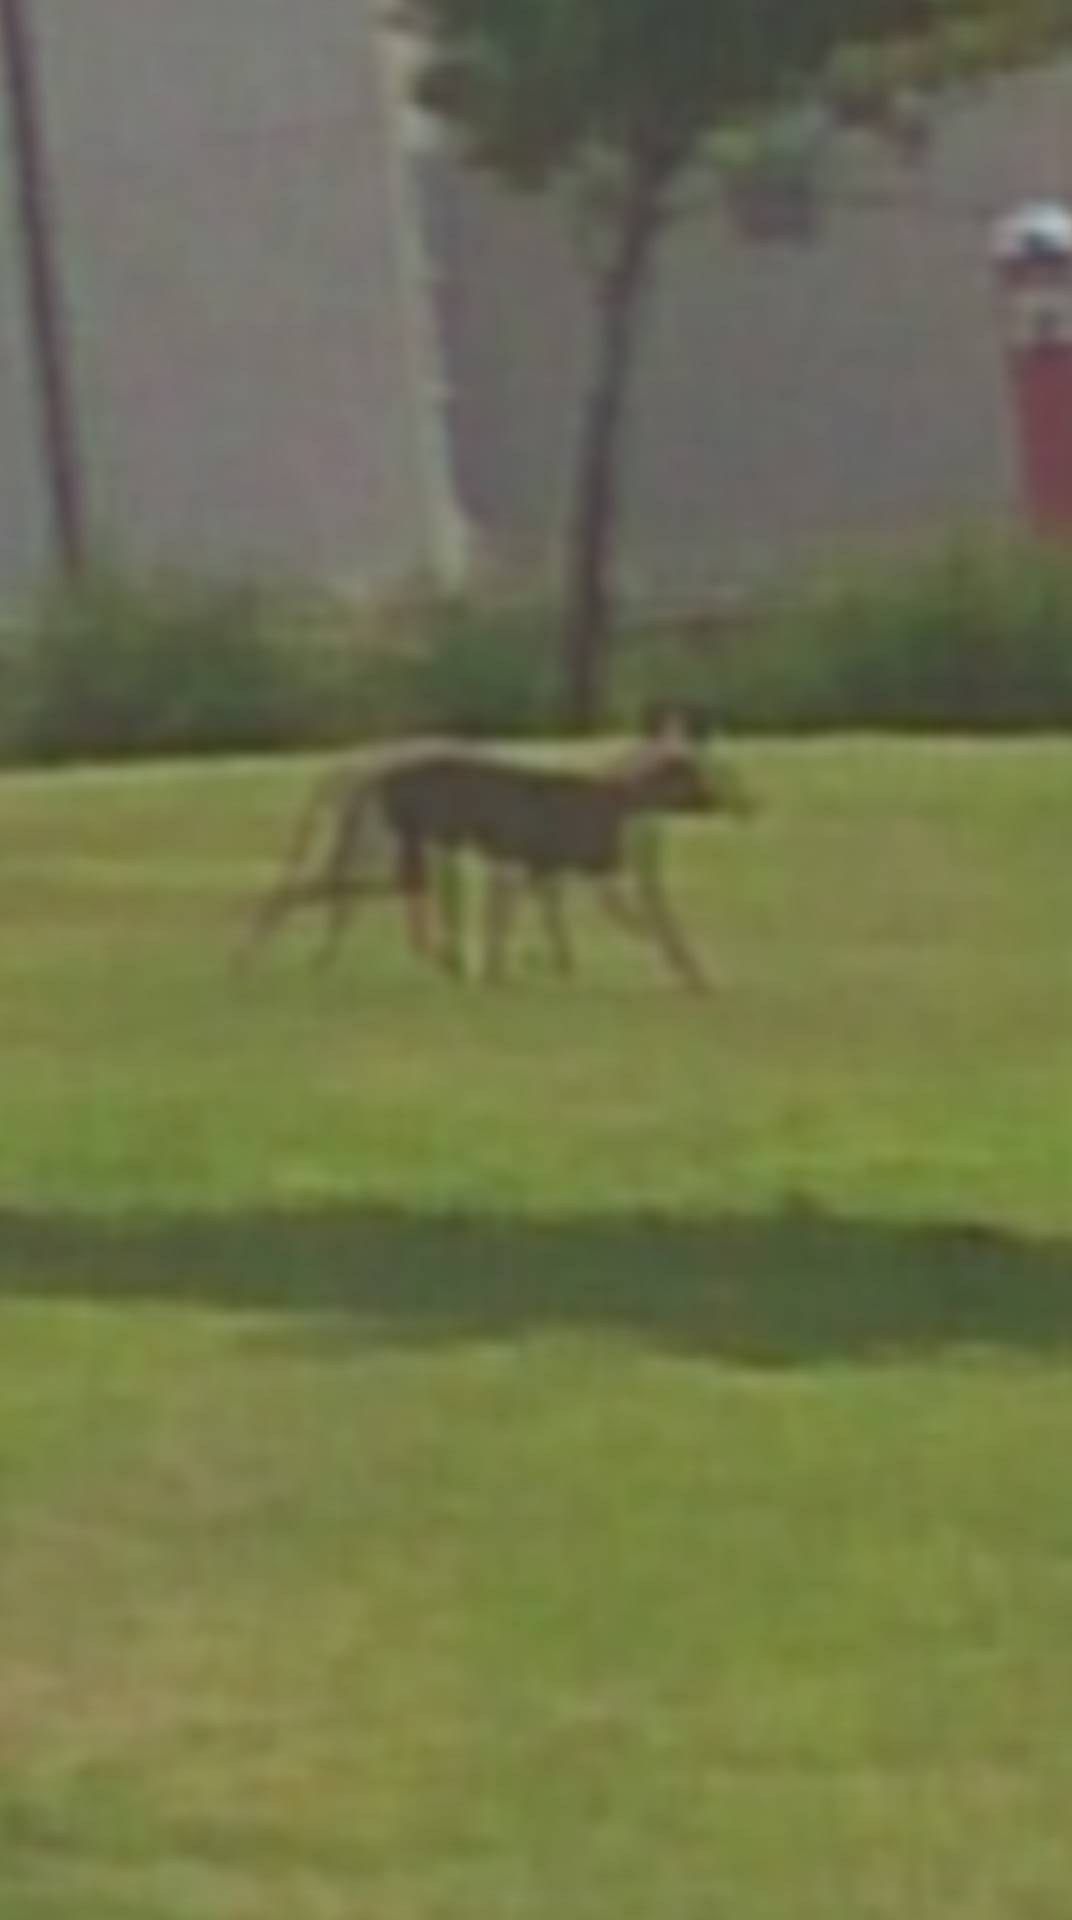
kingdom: Animalia
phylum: Chordata
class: Mammalia
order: Carnivora
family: Canidae
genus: Canis
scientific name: Canis latrans
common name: Coyote
